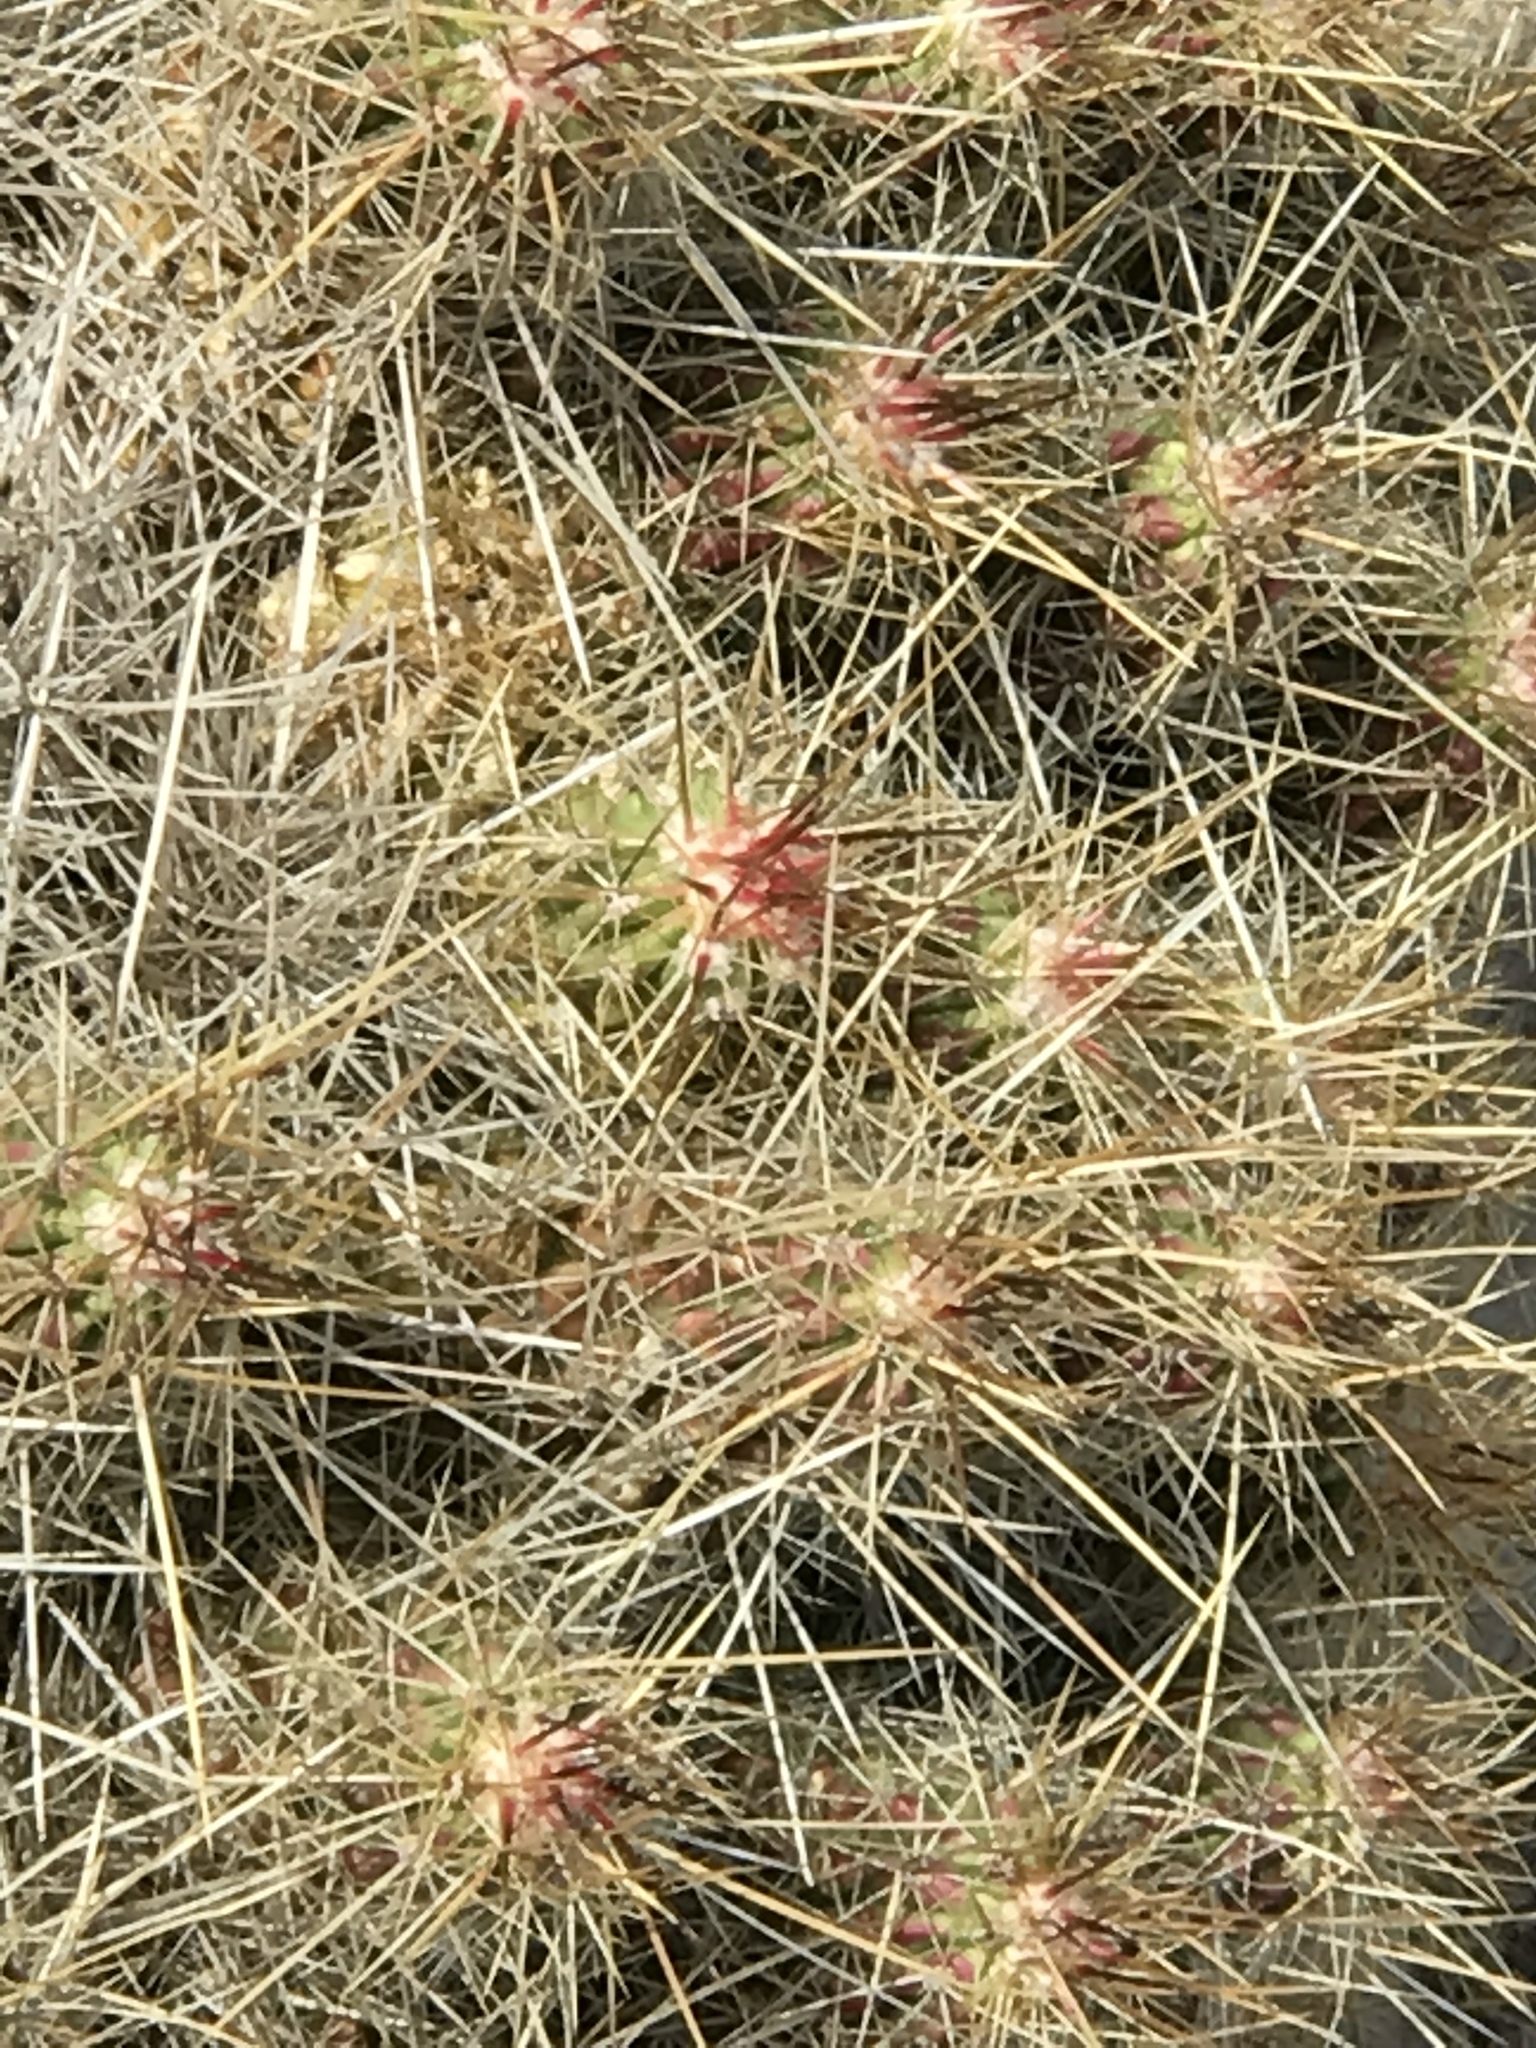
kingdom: Plantae
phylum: Tracheophyta
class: Magnoliopsida
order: Caryophyllales
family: Cactaceae
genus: Echinocereus
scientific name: Echinocereus stramineus
